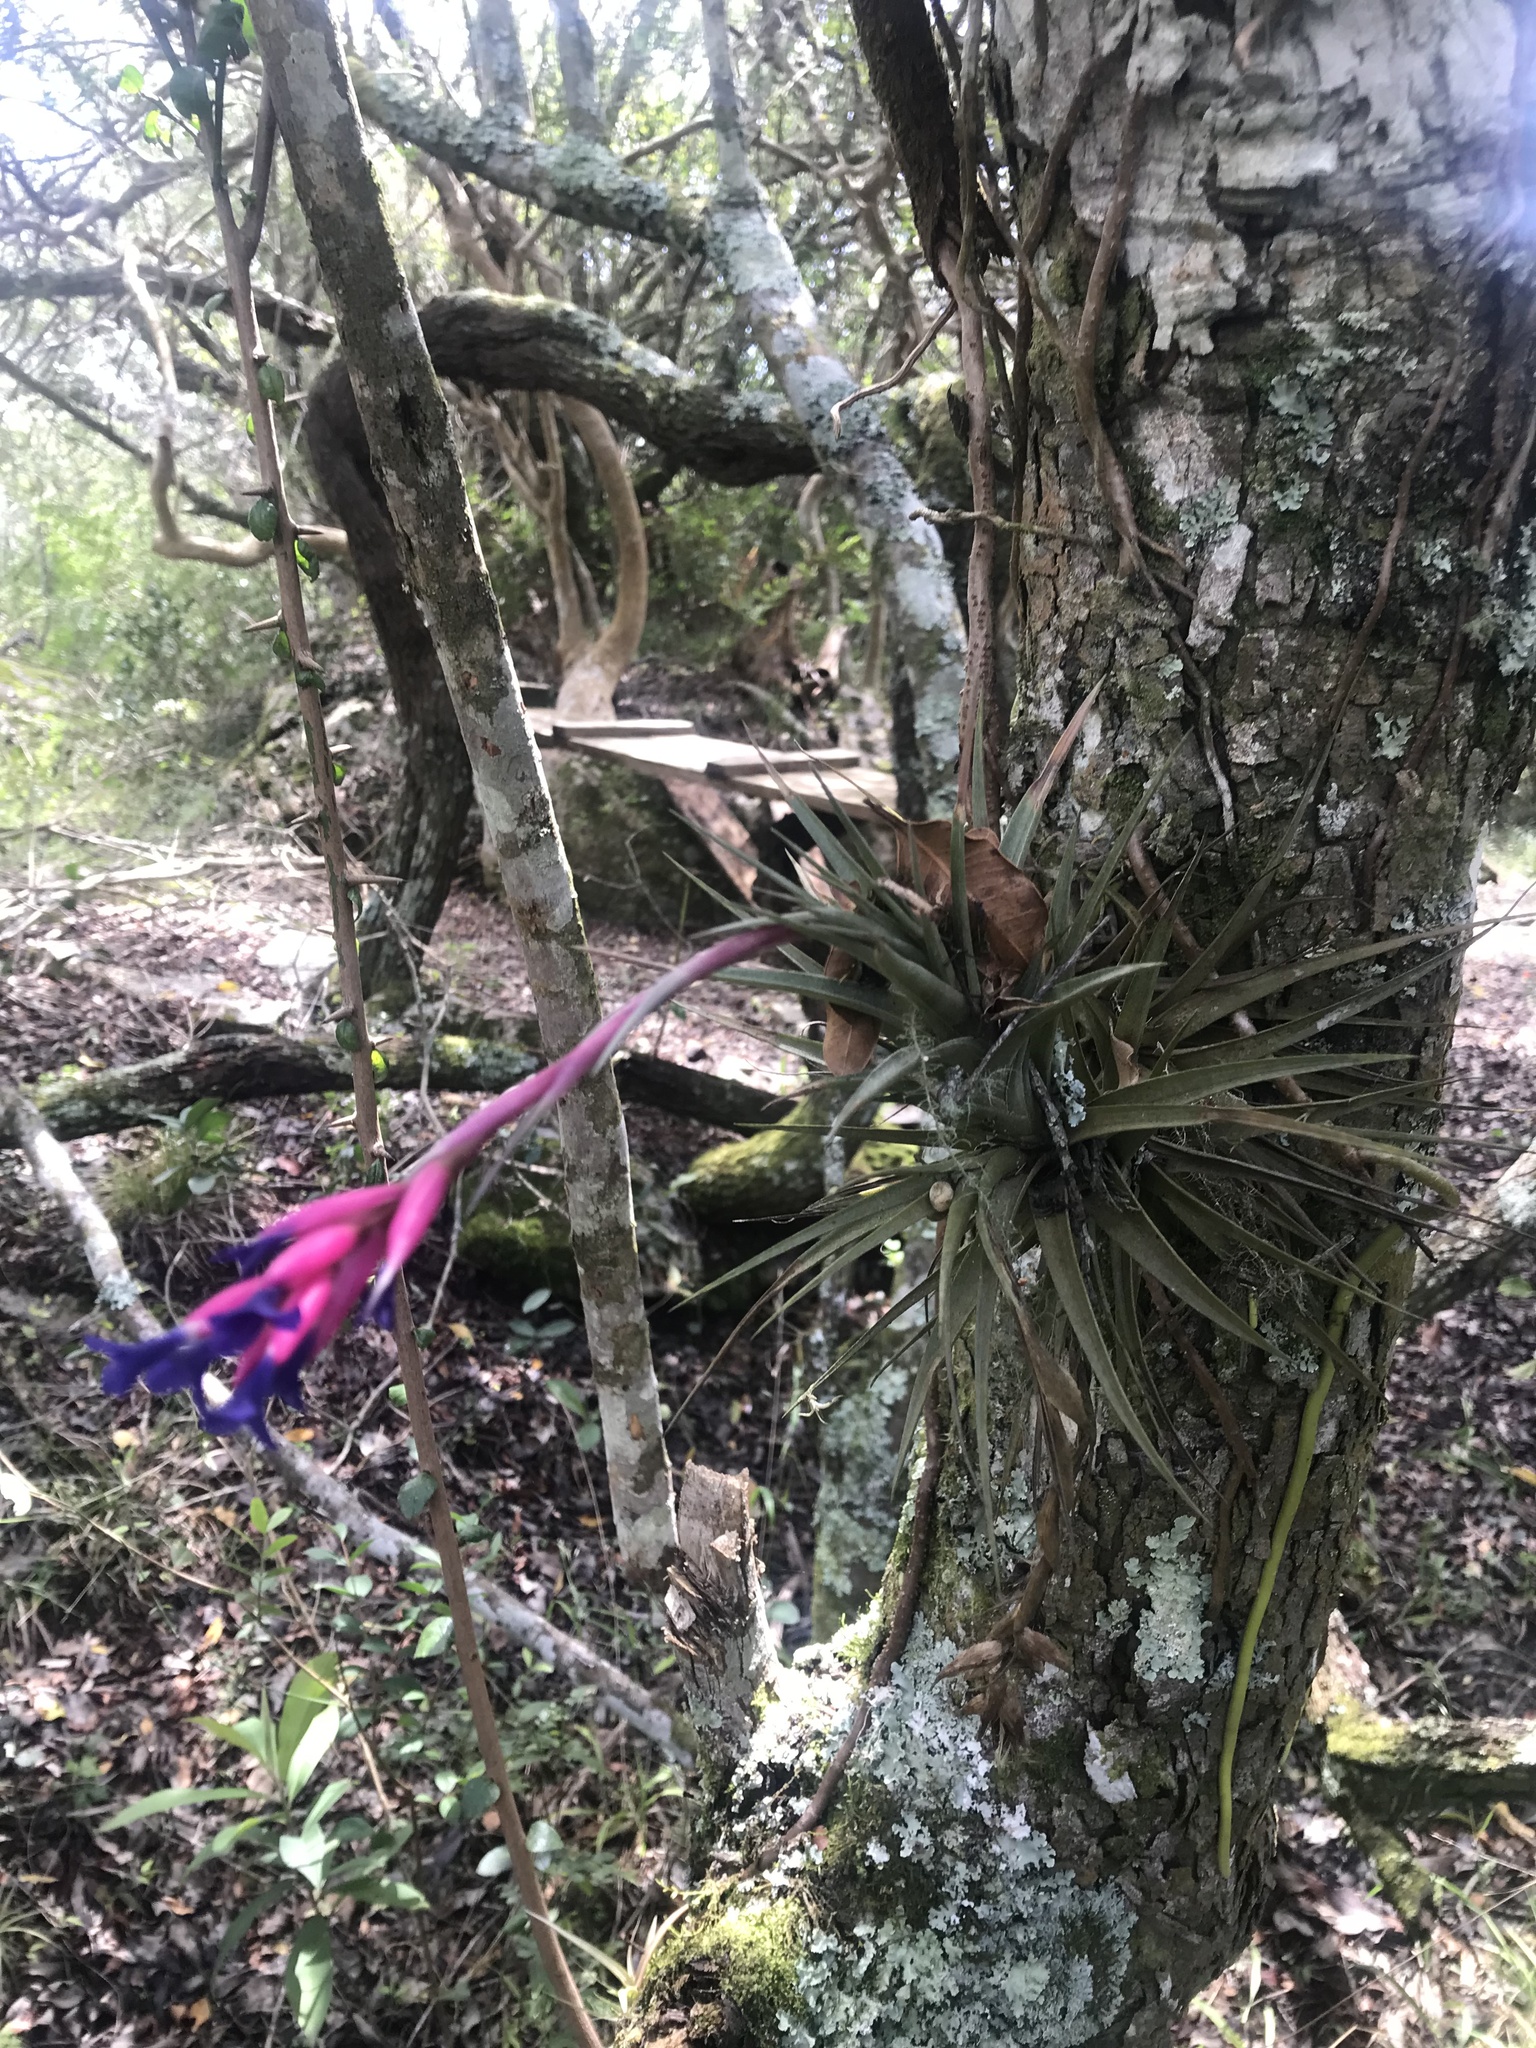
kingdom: Plantae
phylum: Tracheophyta
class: Liliopsida
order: Poales
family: Bromeliaceae
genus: Tillandsia
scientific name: Tillandsia aeranthos
